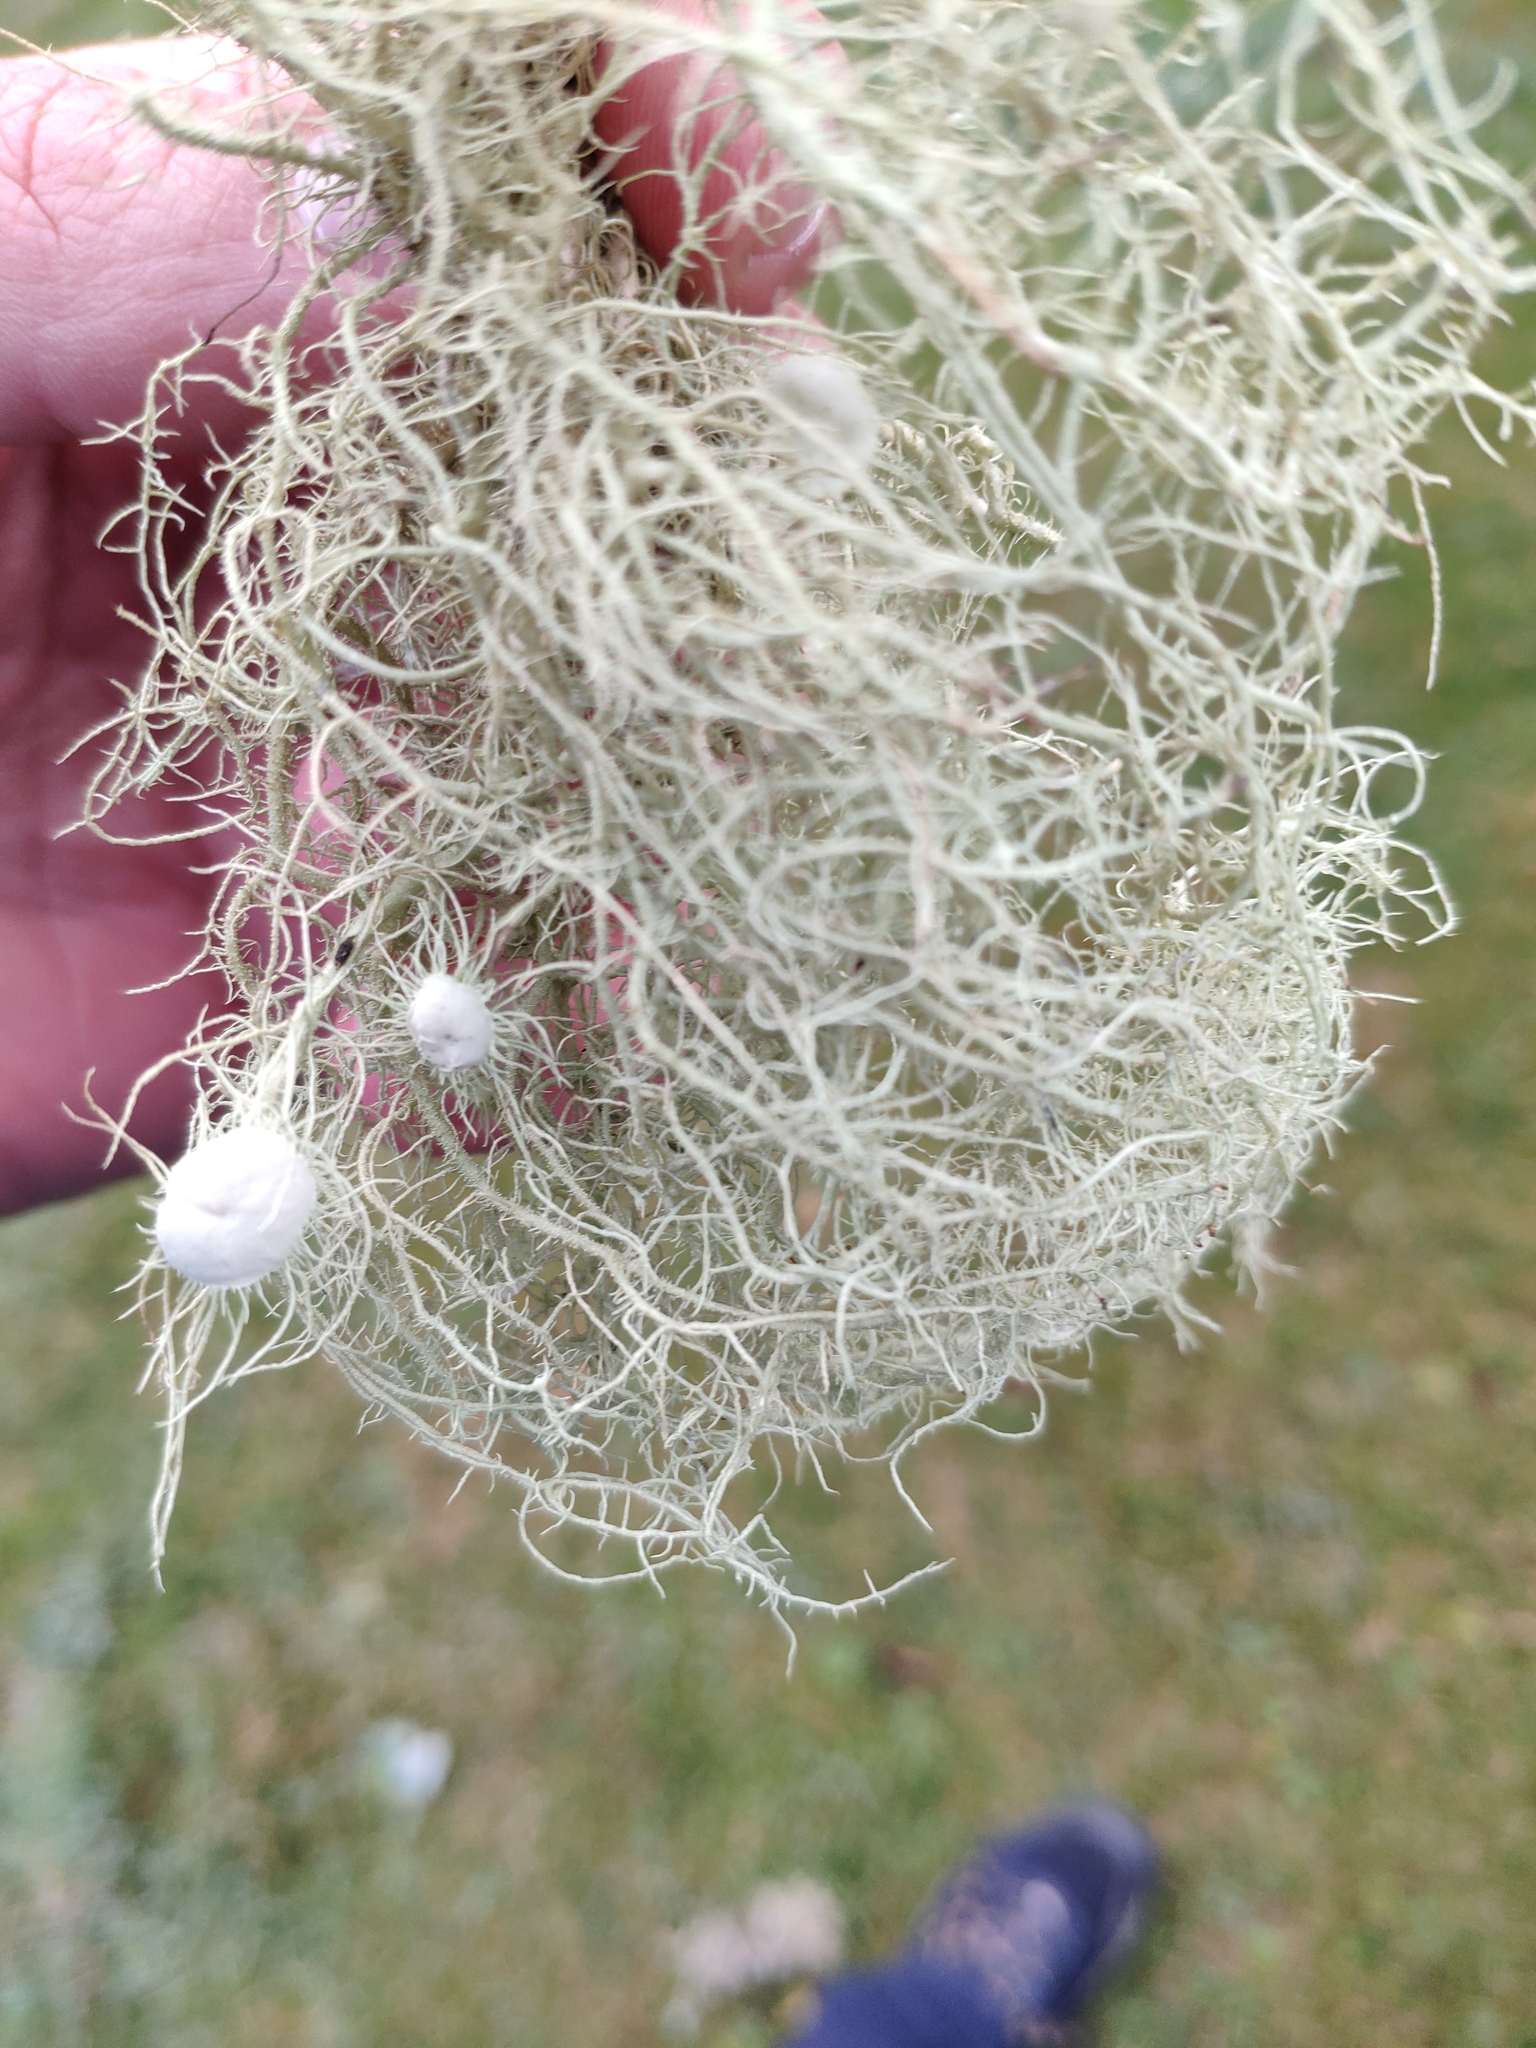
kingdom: Fungi
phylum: Ascomycota
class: Lecanoromycetes
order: Lecanorales
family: Parmeliaceae
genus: Usnea
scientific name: Usnea florida
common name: Witches' whiskers lichen
